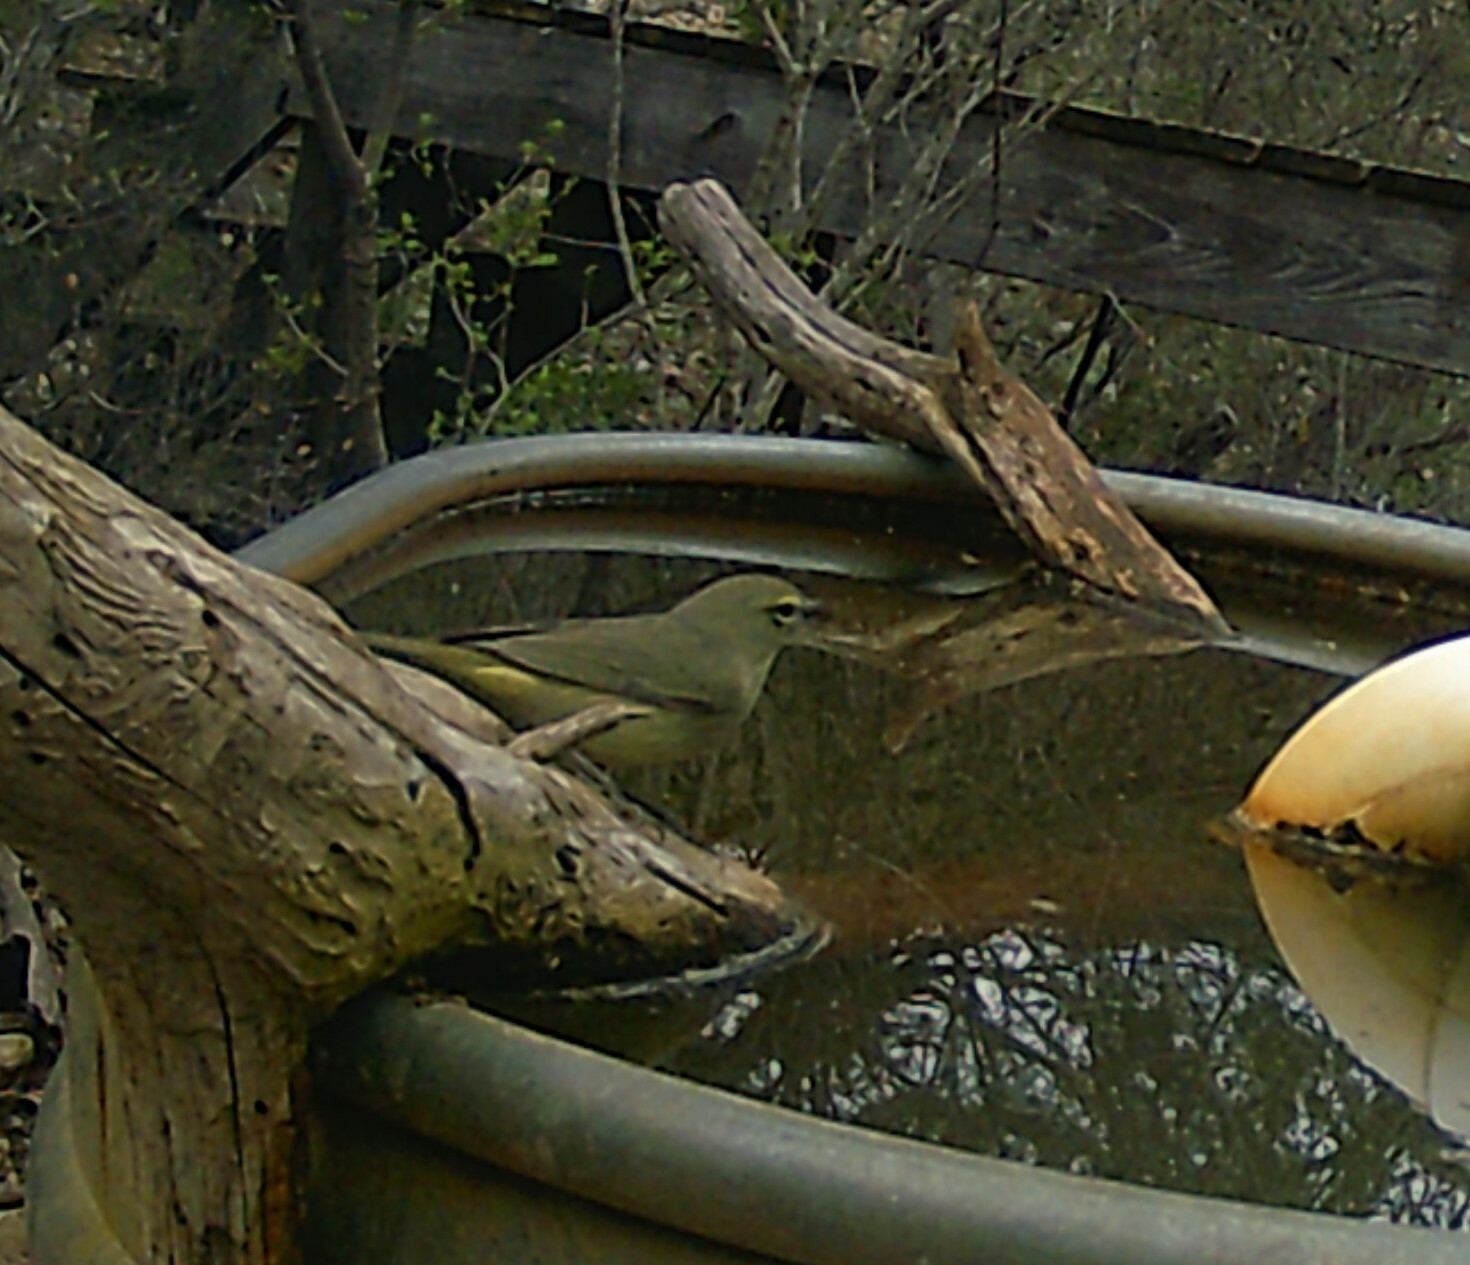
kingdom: Animalia
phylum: Chordata
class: Aves
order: Passeriformes
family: Parulidae
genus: Leiothlypis
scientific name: Leiothlypis celata
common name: Orange-crowned warbler
